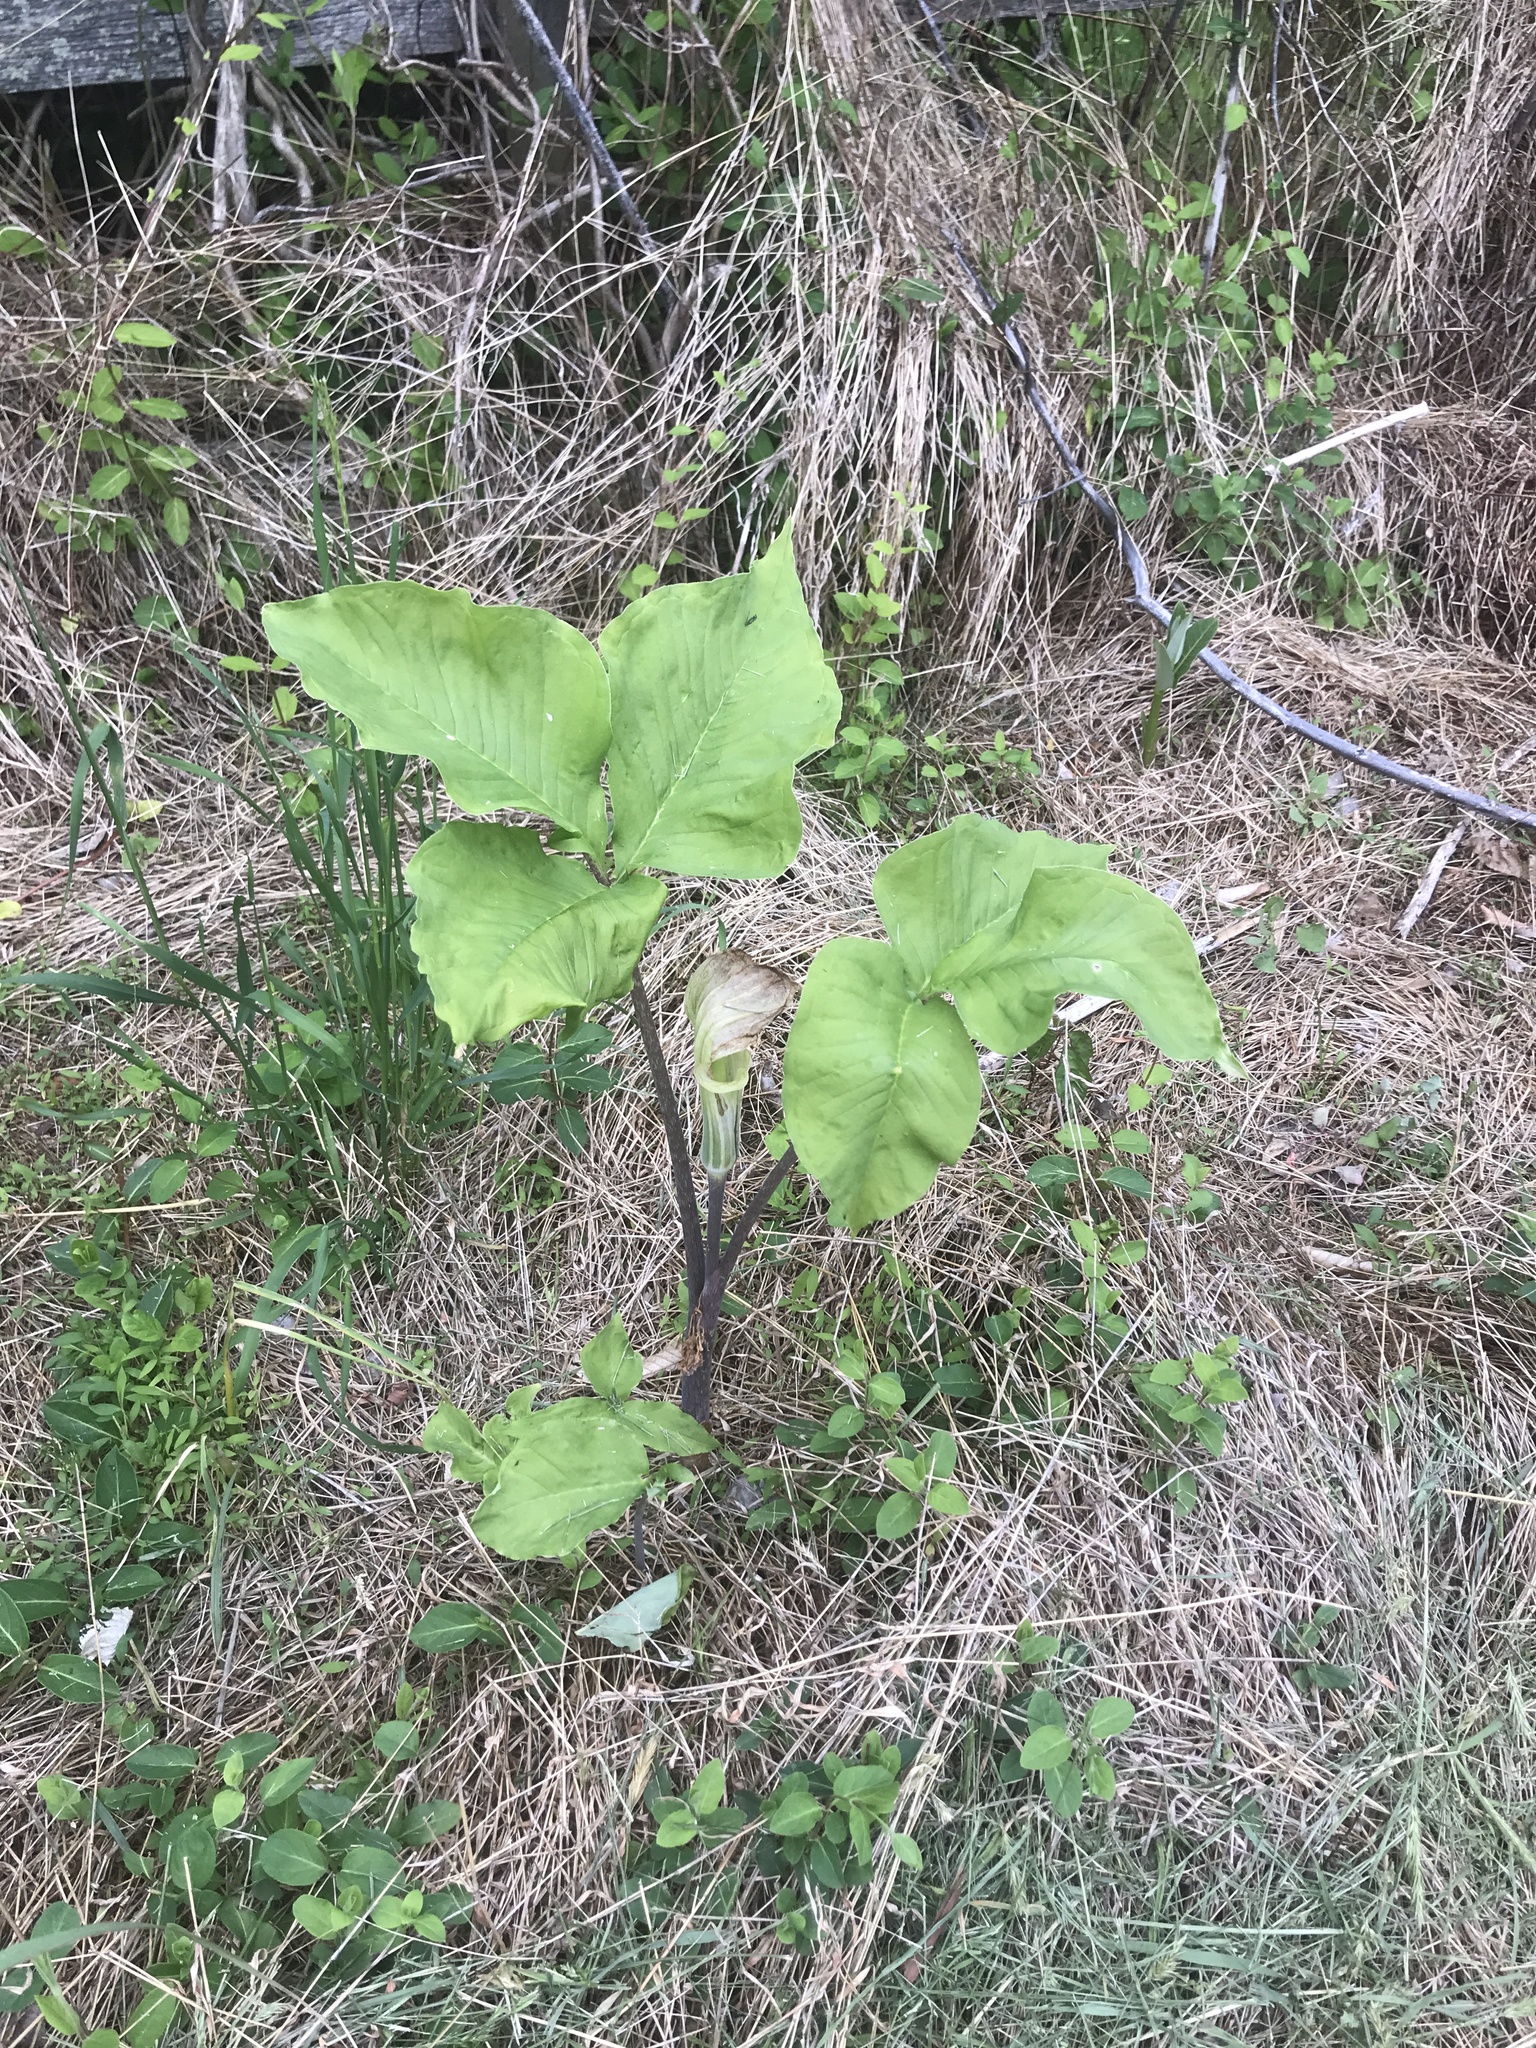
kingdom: Plantae
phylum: Tracheophyta
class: Liliopsida
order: Alismatales
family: Araceae
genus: Arisaema
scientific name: Arisaema triphyllum
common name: Jack-in-the-pulpit
